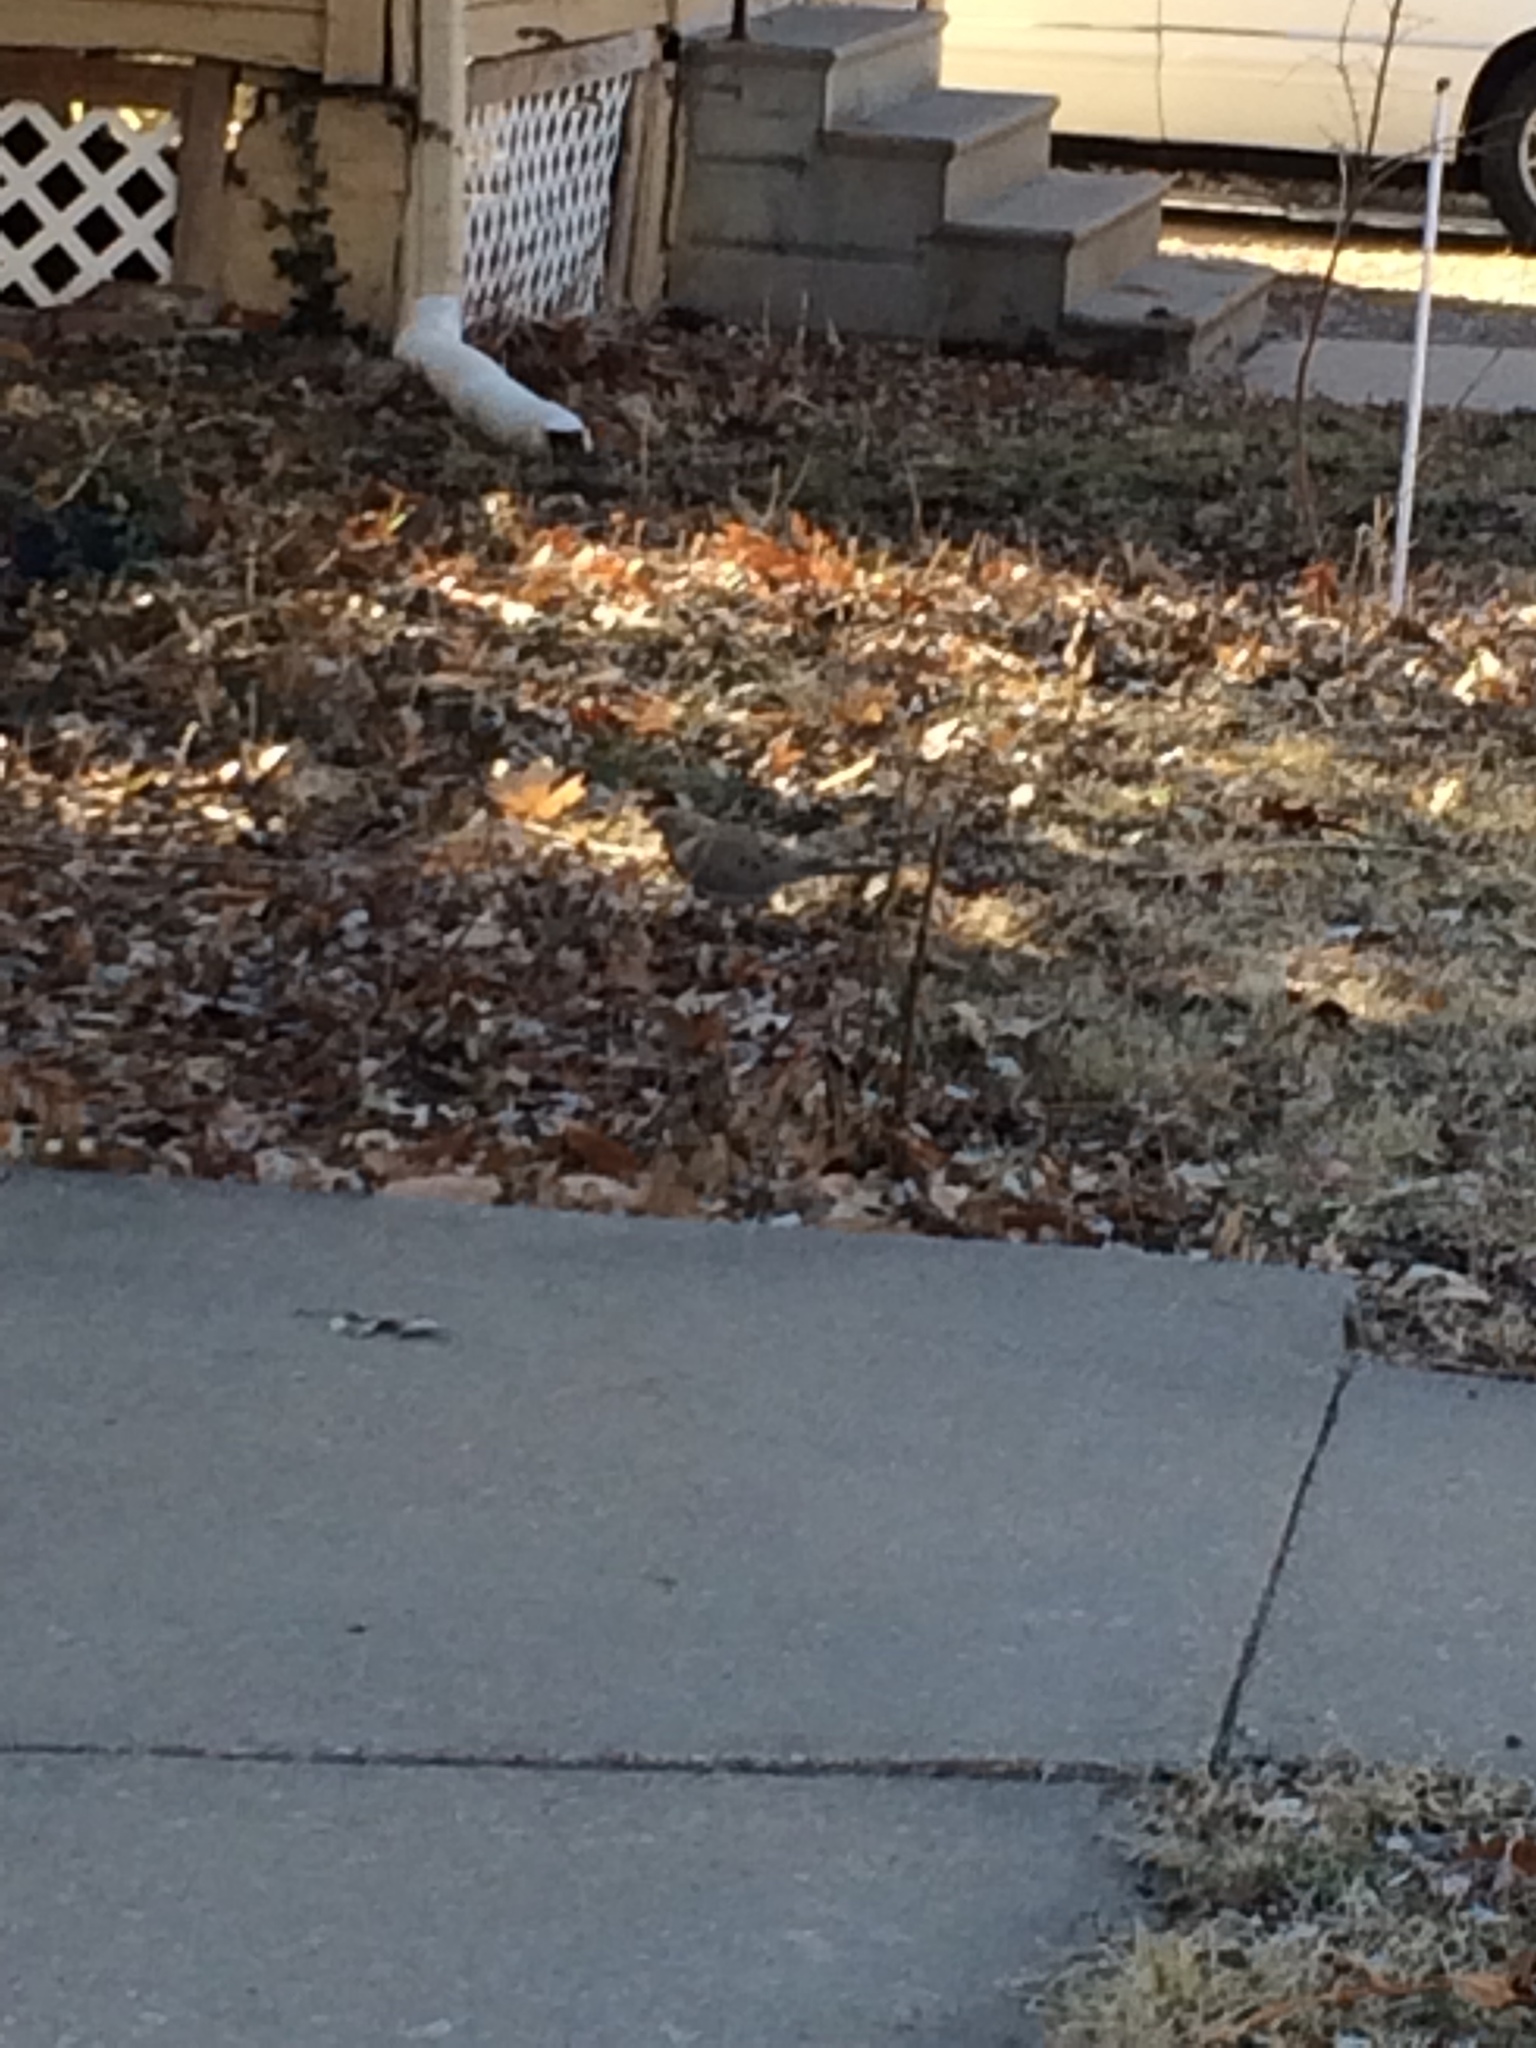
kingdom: Animalia
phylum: Chordata
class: Aves
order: Columbiformes
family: Columbidae
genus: Zenaida
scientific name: Zenaida macroura
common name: Mourning dove
